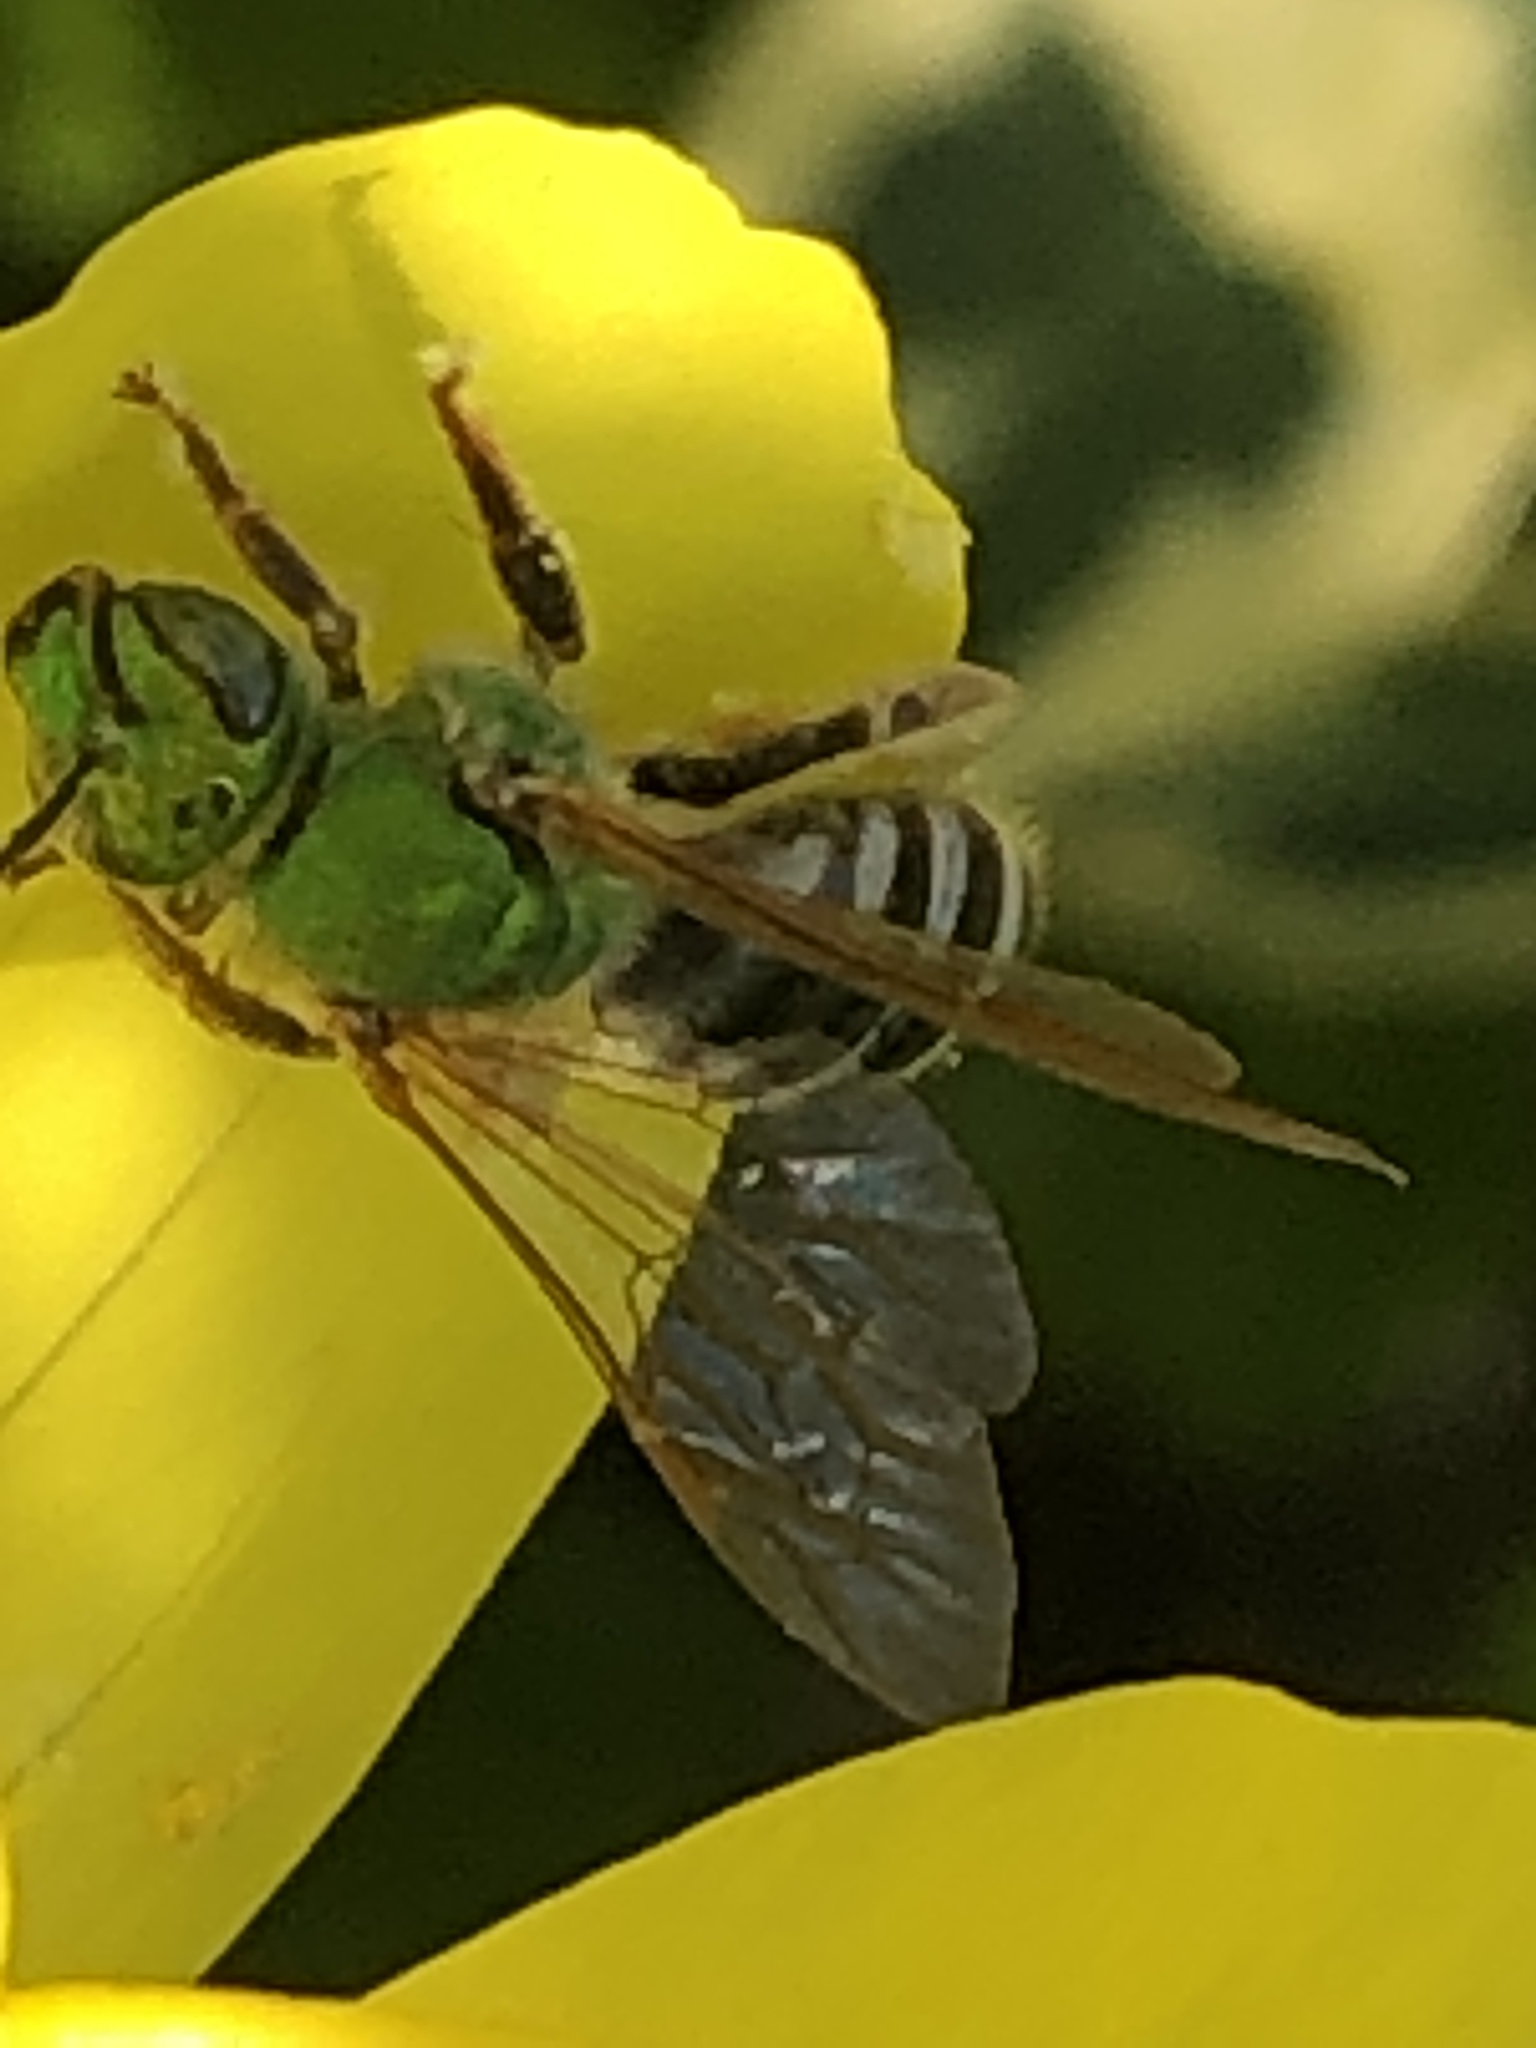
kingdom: Animalia
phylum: Arthropoda
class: Insecta
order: Hymenoptera
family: Halictidae
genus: Agapostemon
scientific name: Agapostemon virescens
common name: Bicolored striped sweat bee
